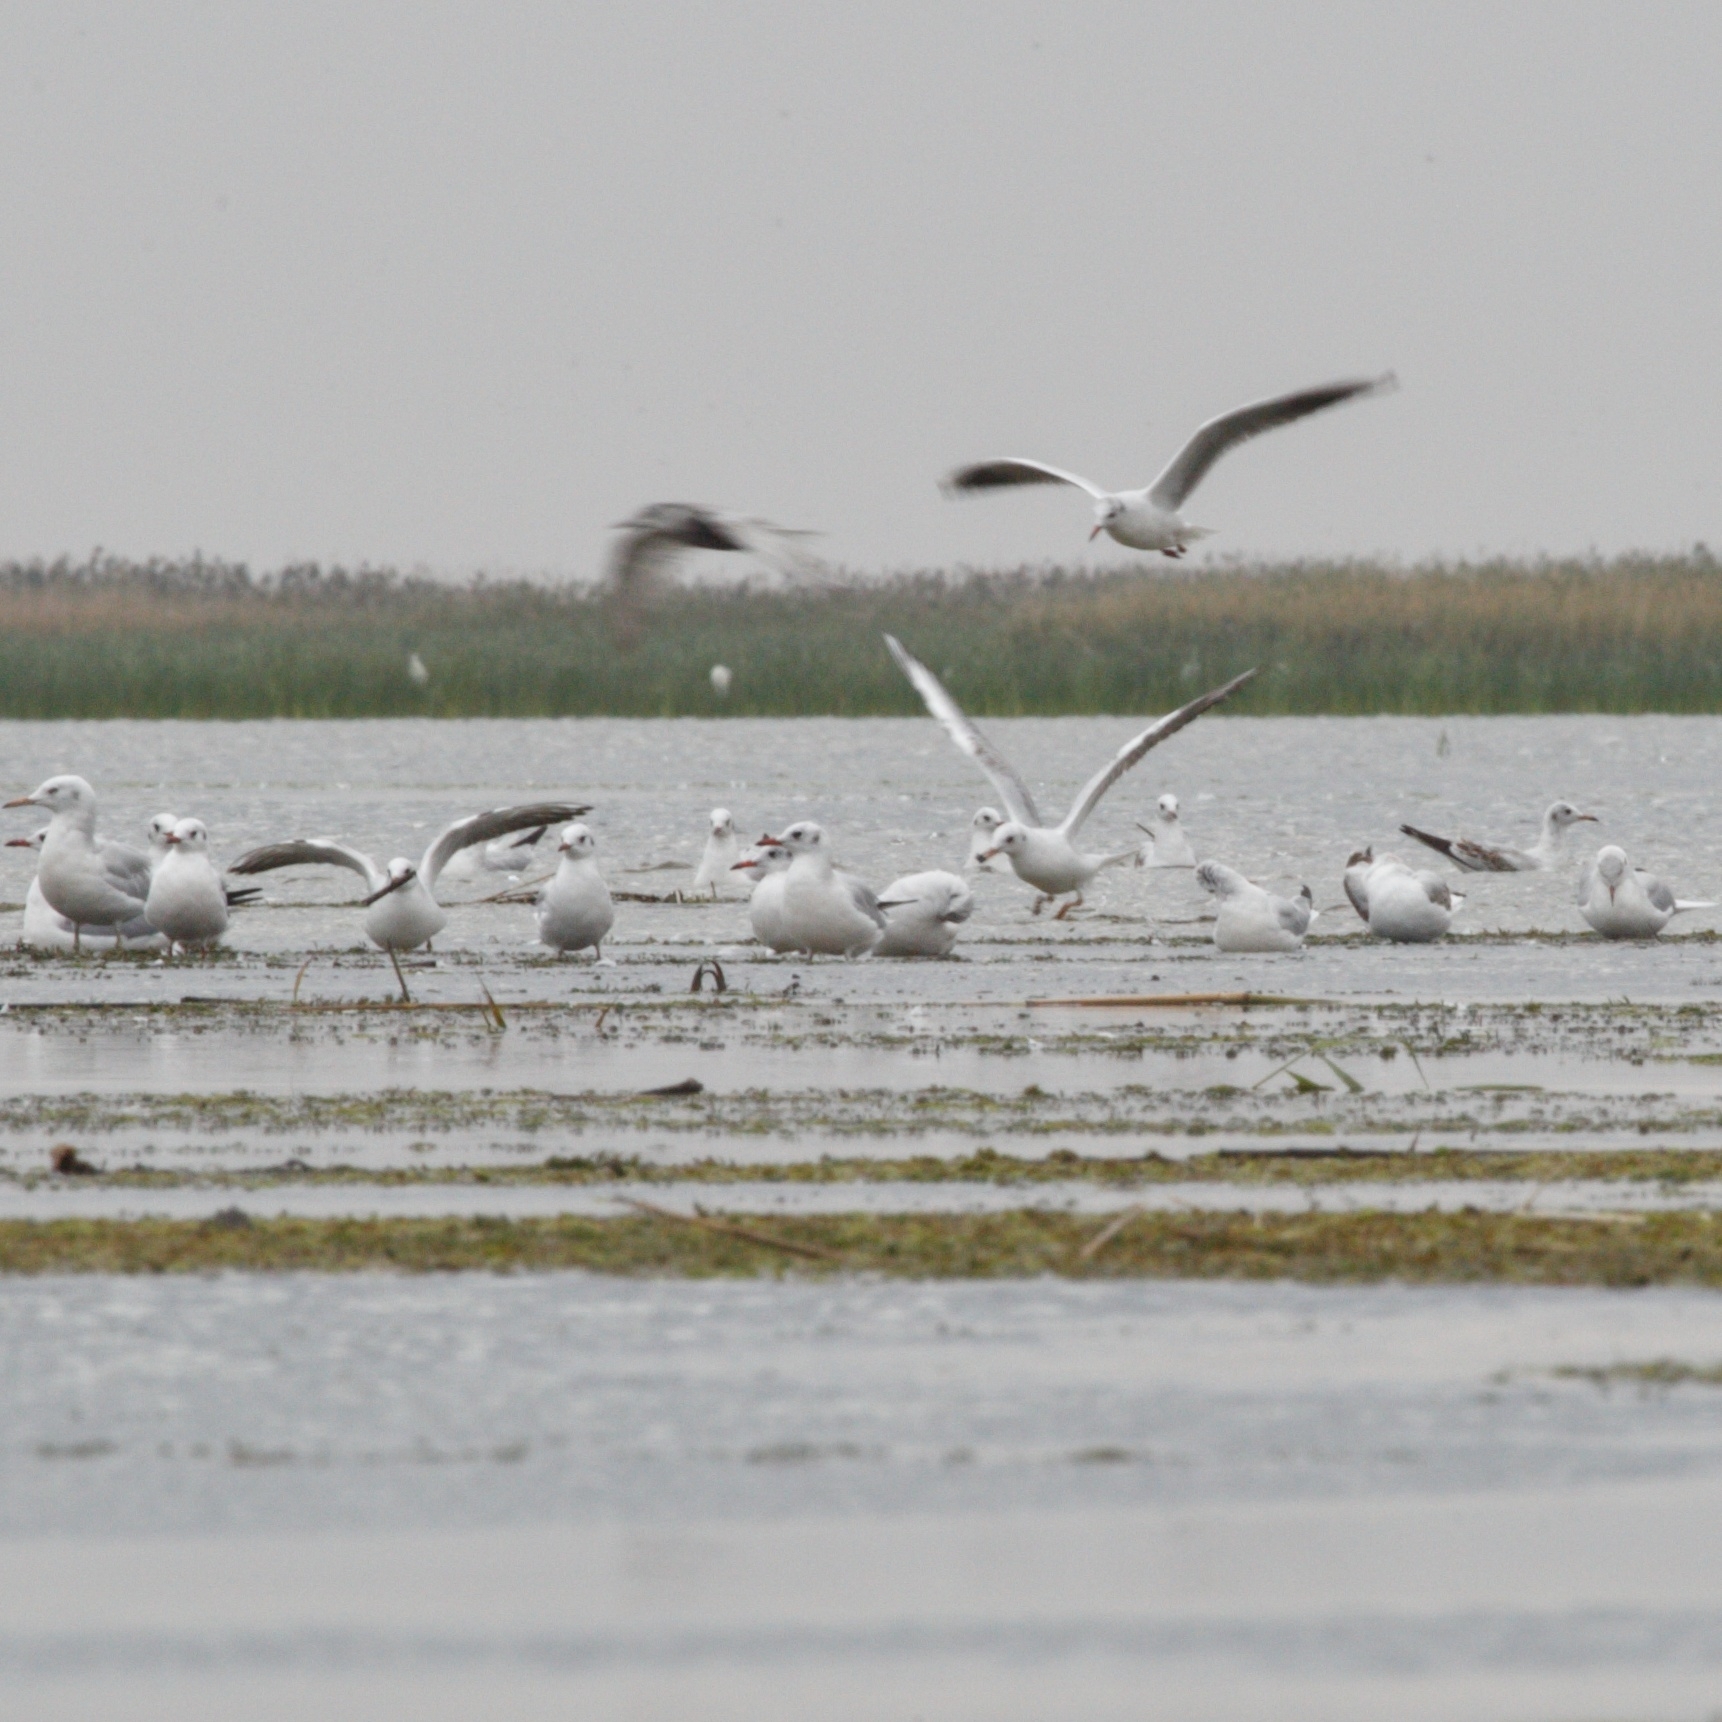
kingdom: Animalia
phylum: Chordata
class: Aves
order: Charadriiformes
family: Laridae
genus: Chroicocephalus
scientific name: Chroicocephalus ridibundus
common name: Black-headed gull
